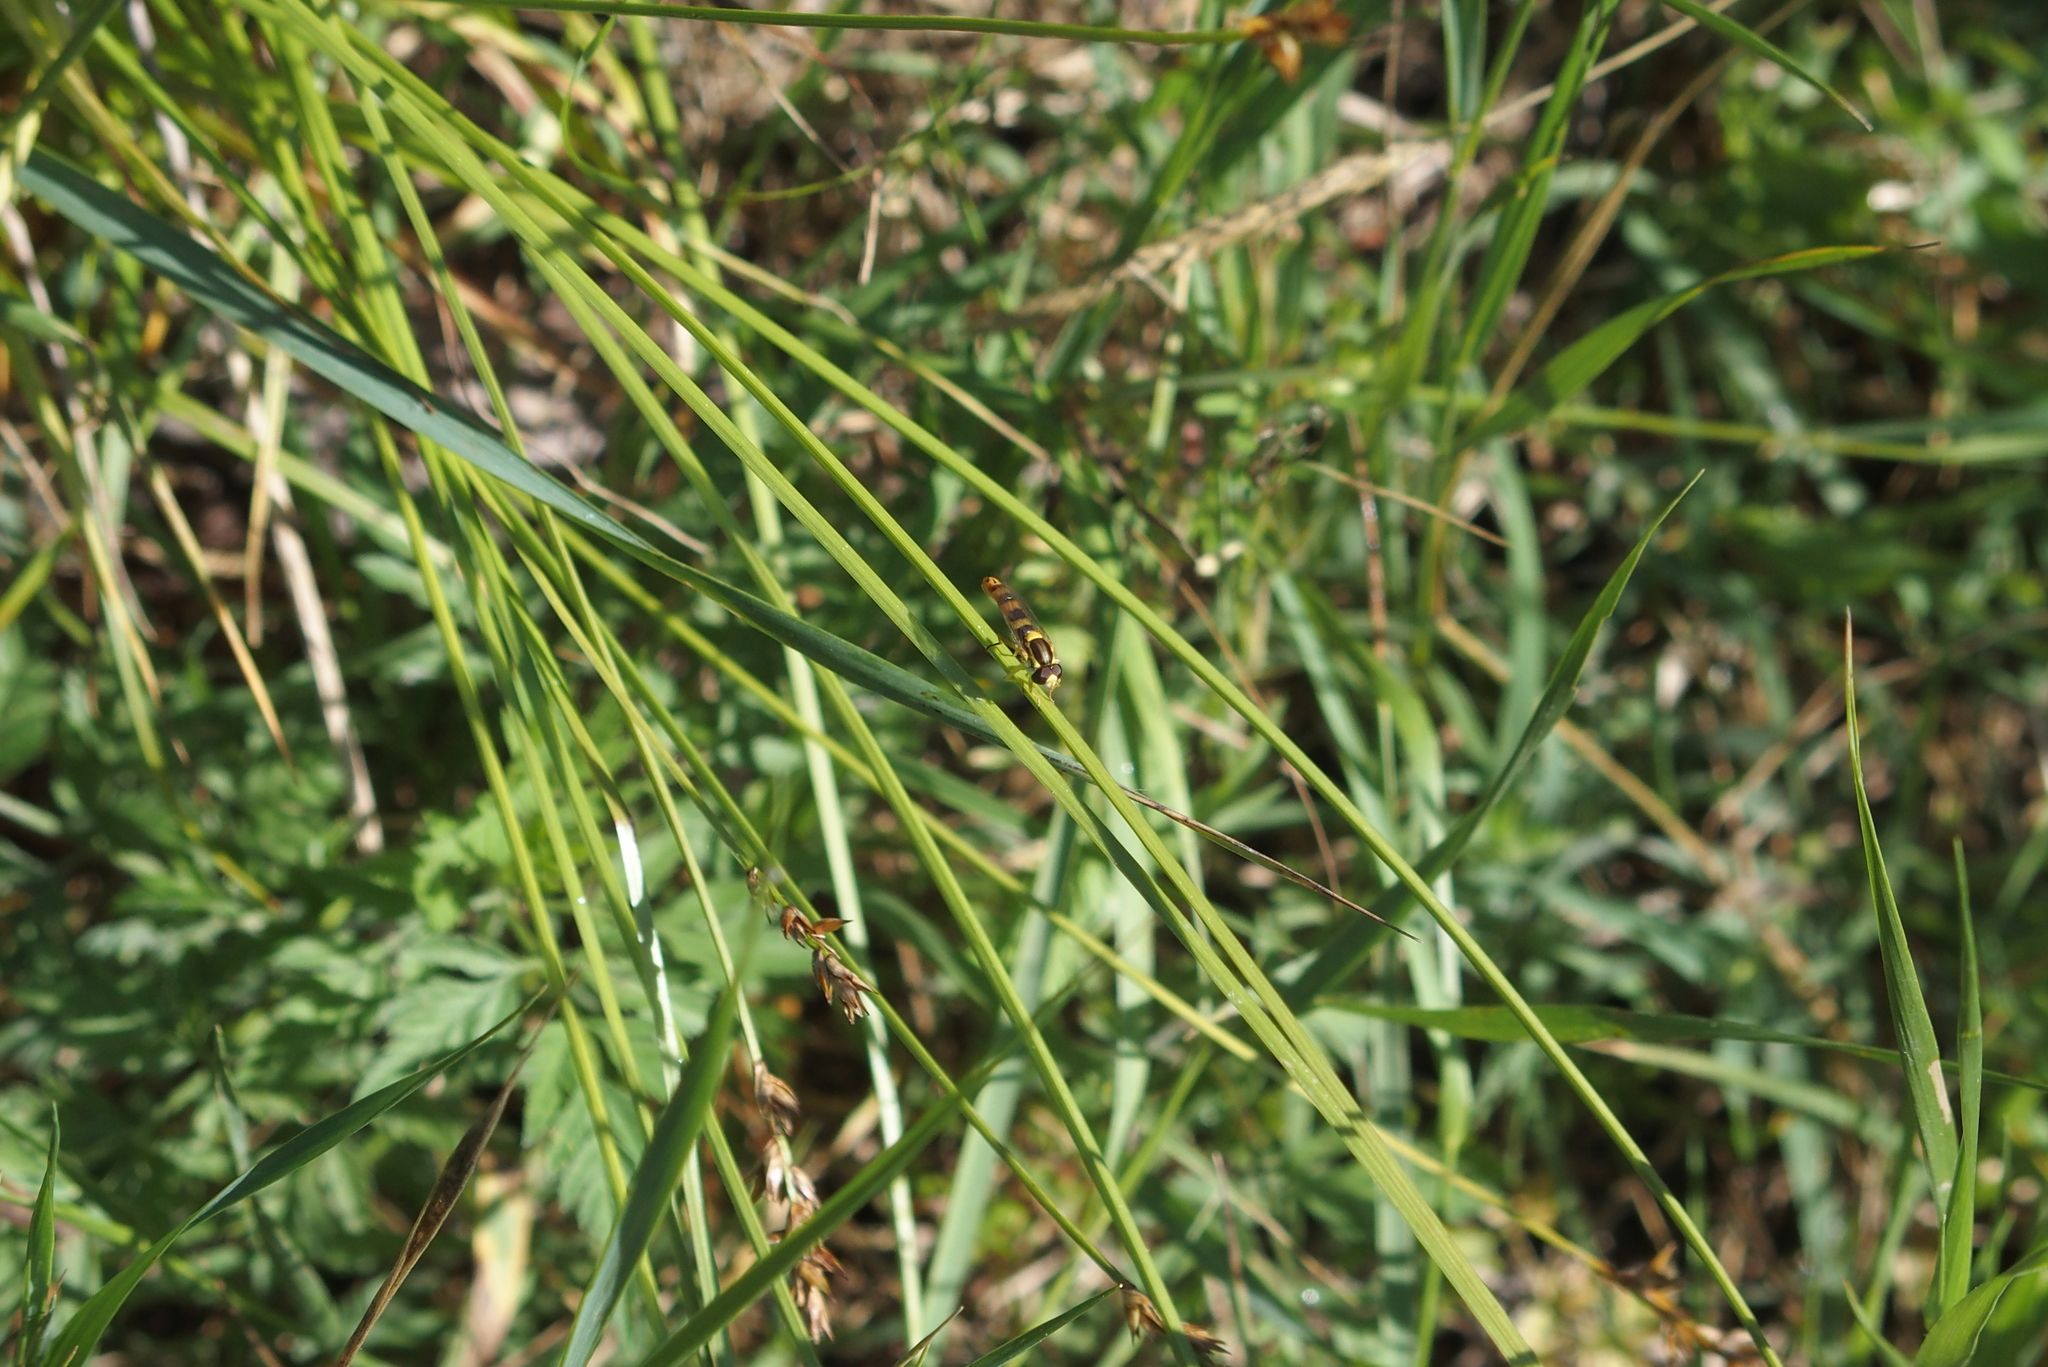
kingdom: Animalia
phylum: Arthropoda
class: Insecta
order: Diptera
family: Syrphidae
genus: Sphaerophoria
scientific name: Sphaerophoria scripta
